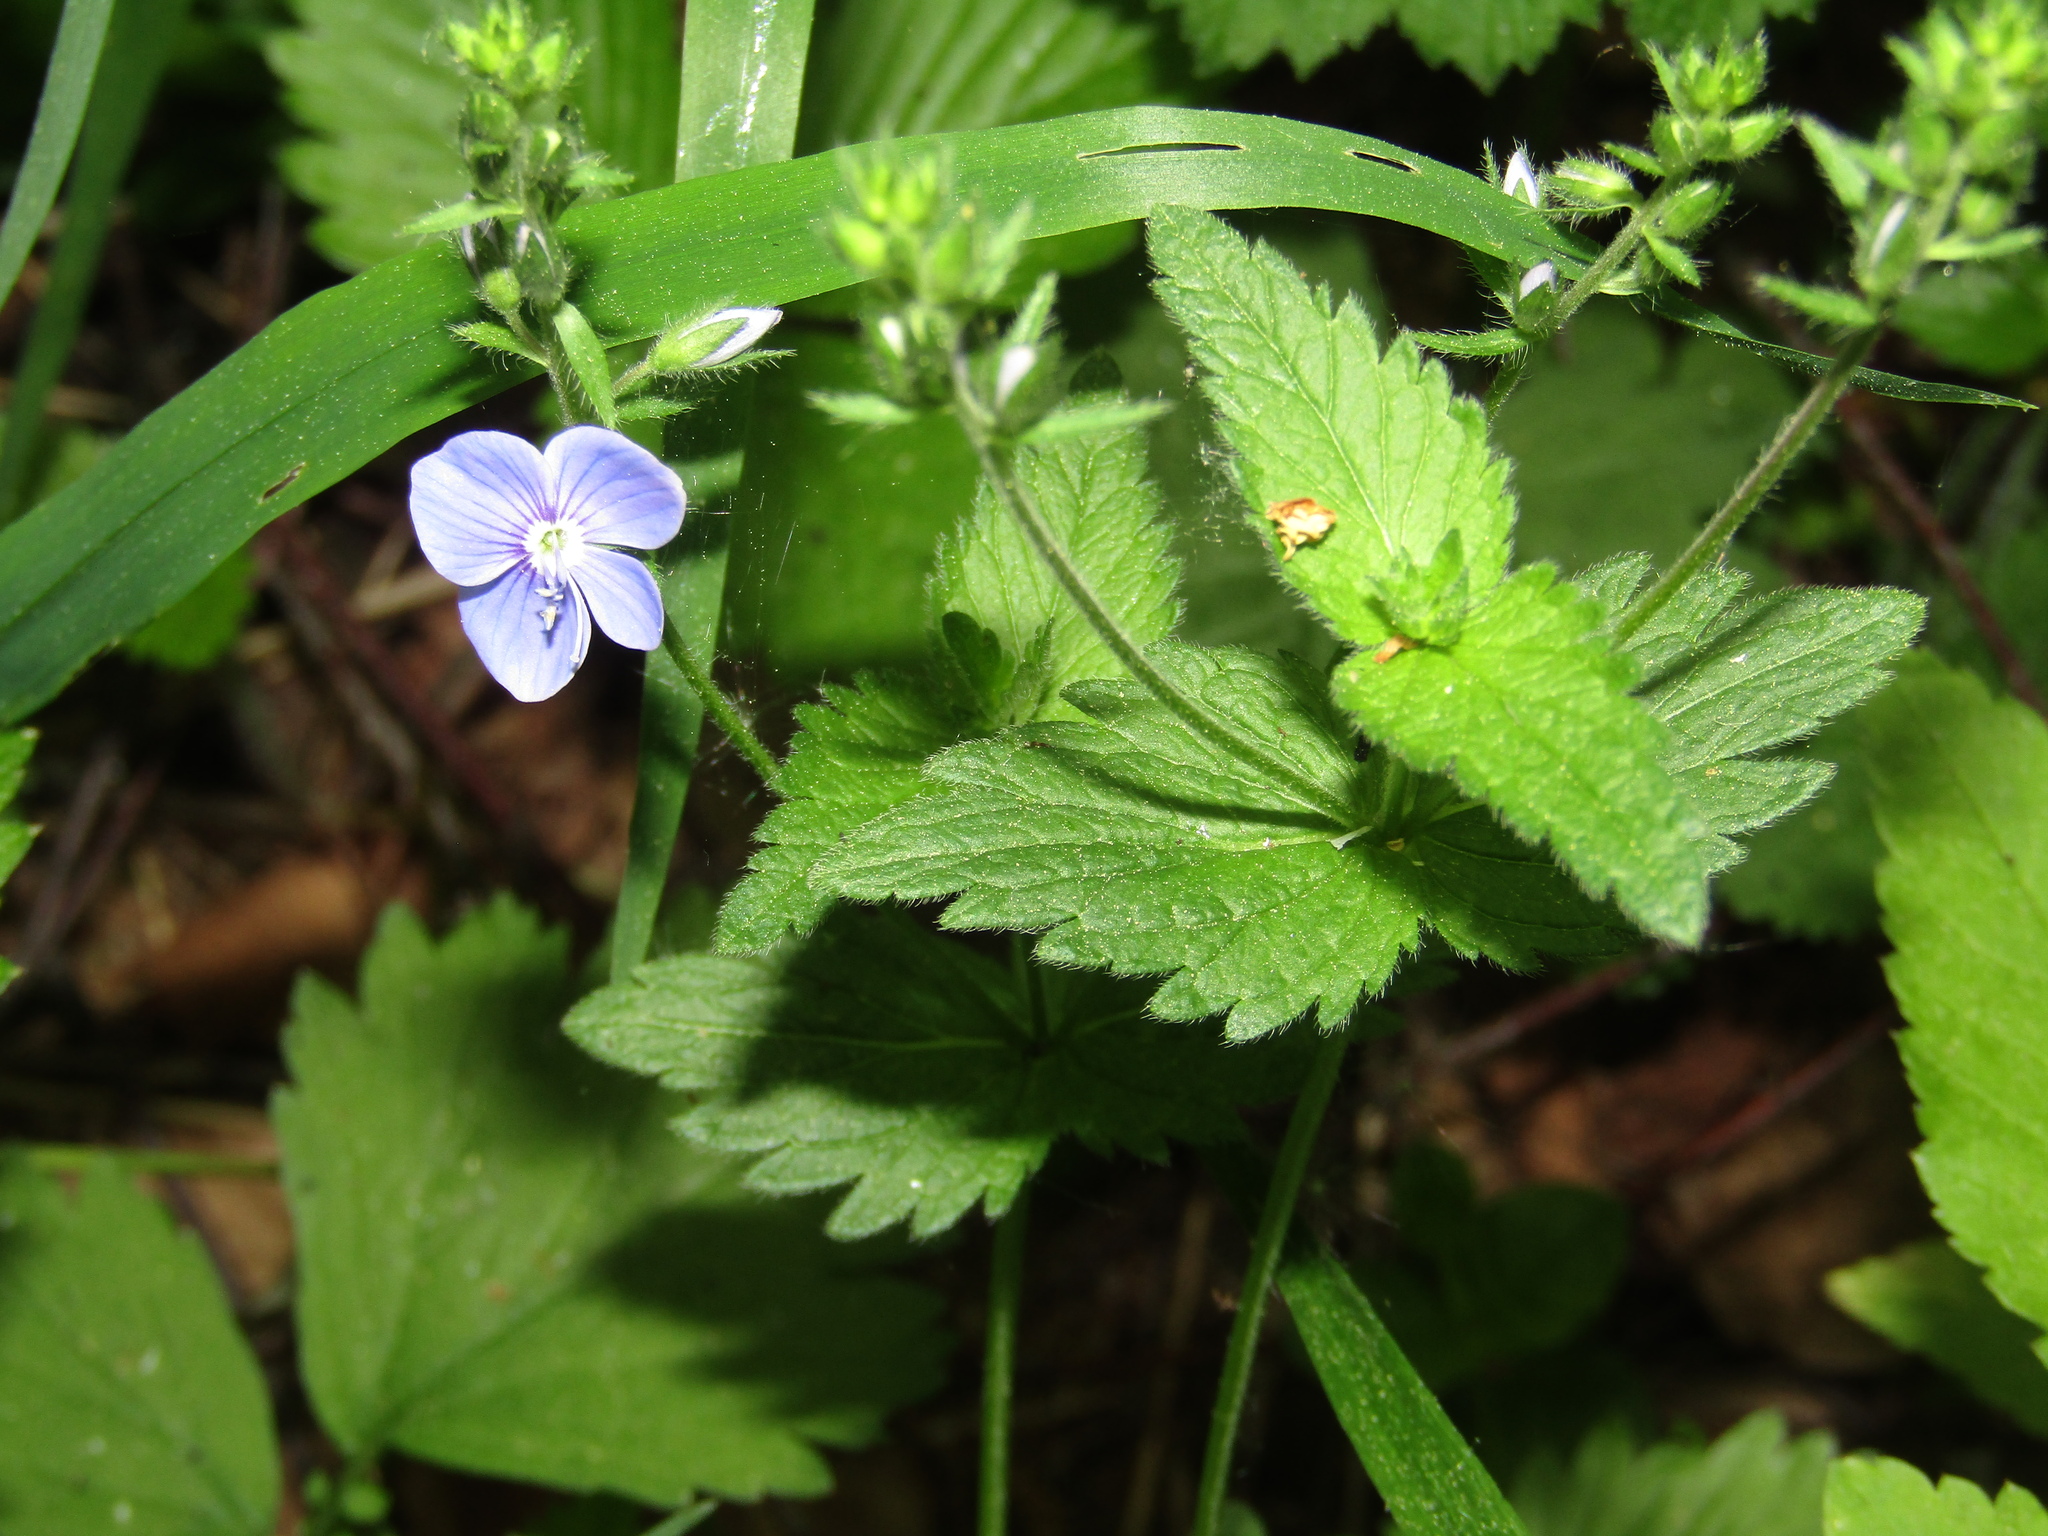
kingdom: Plantae
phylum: Tracheophyta
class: Magnoliopsida
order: Lamiales
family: Plantaginaceae
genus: Veronica
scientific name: Veronica chamaedrys
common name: Germander speedwell
